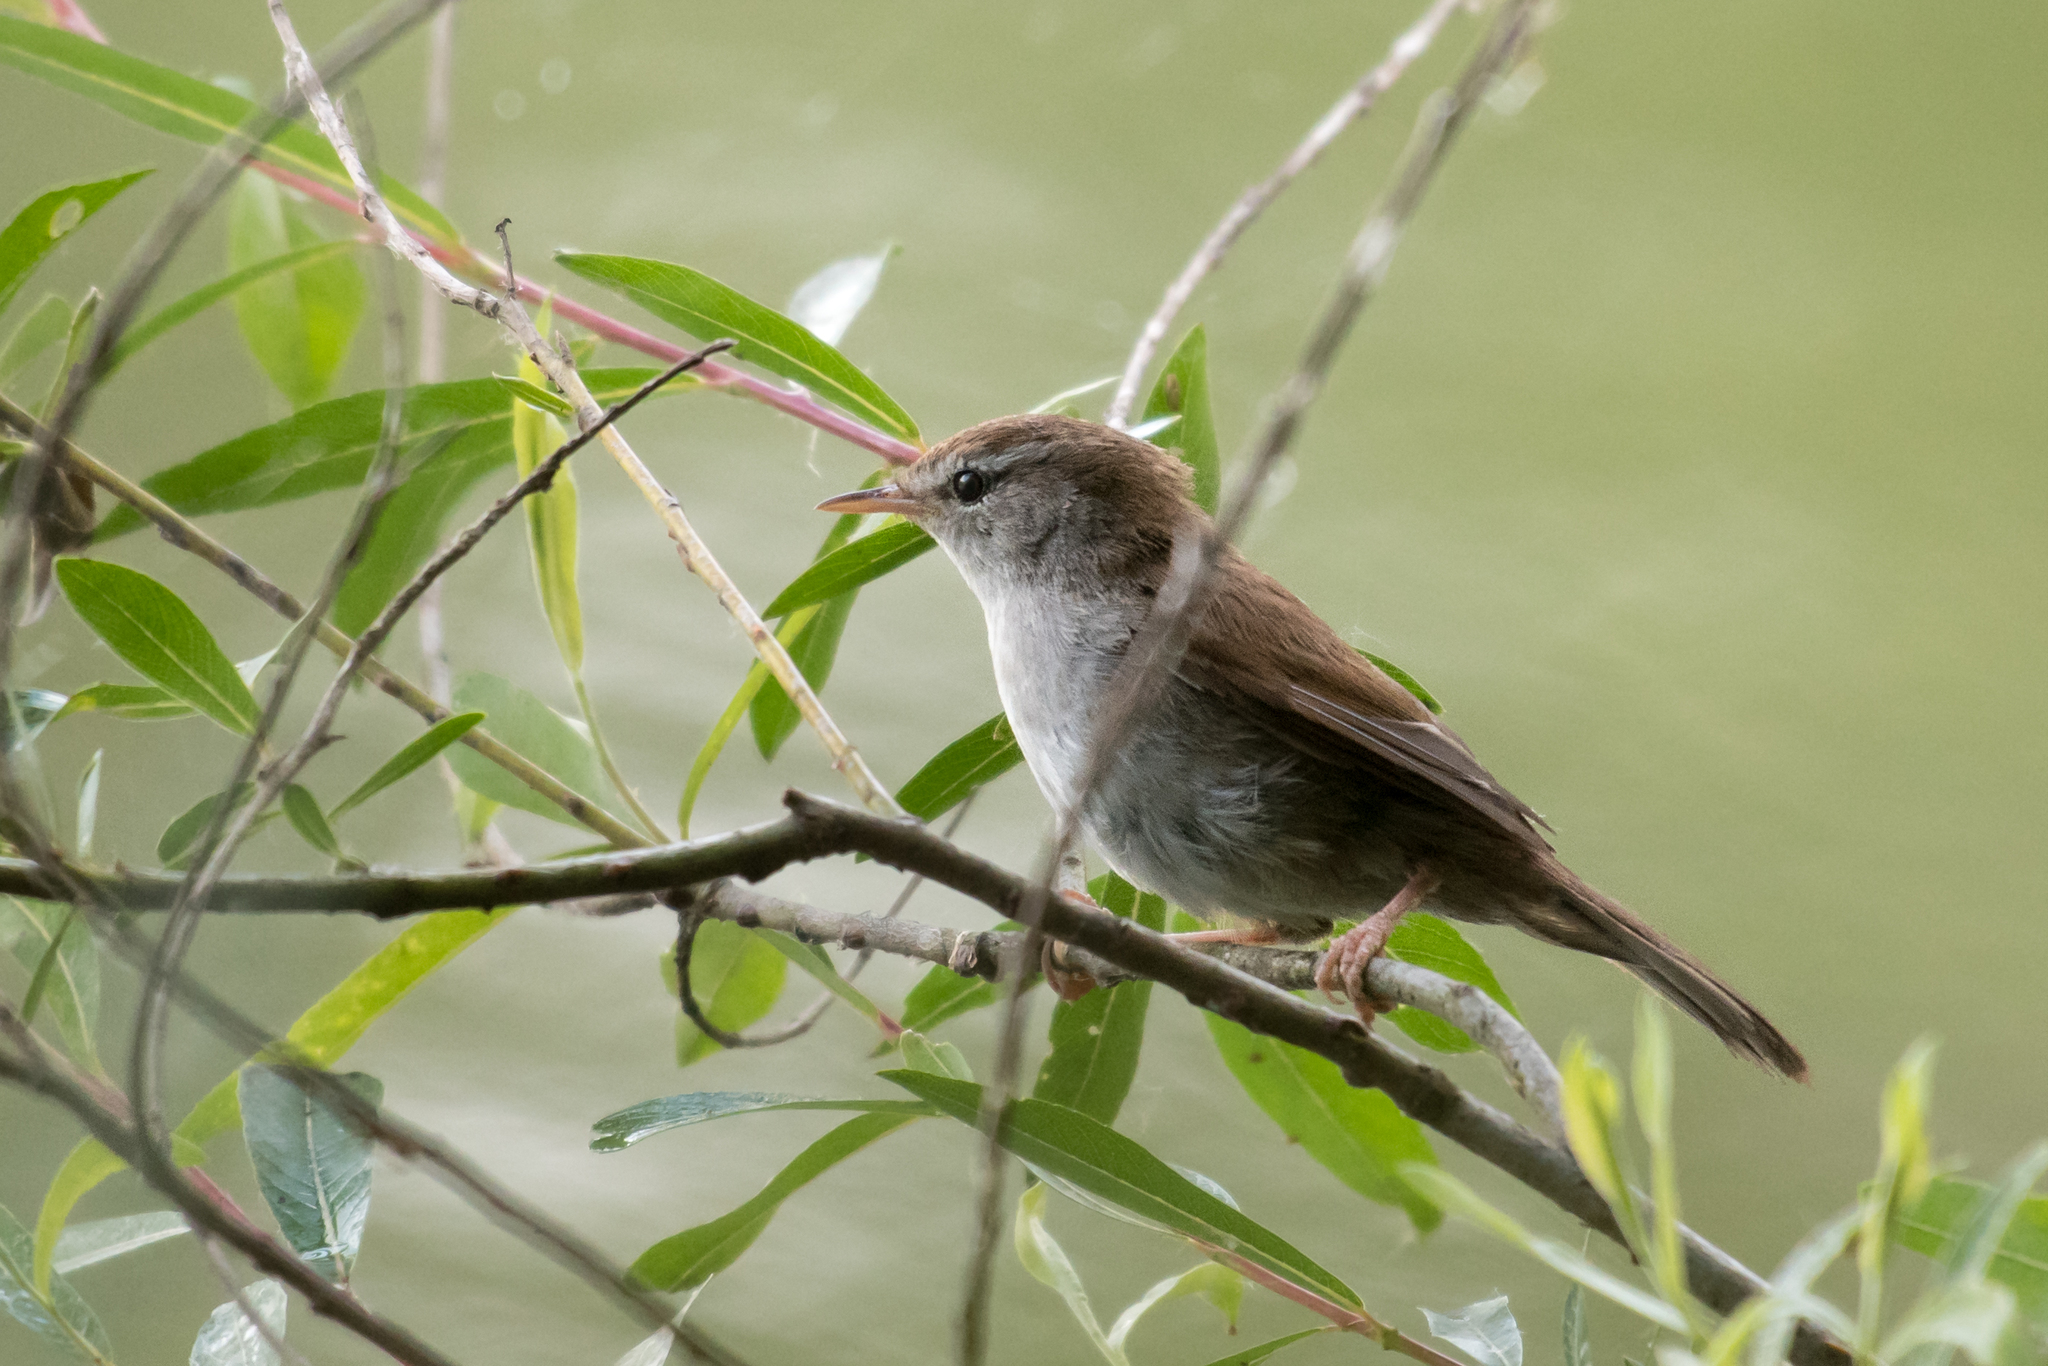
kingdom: Animalia
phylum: Chordata
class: Aves
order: Passeriformes
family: Cettiidae
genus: Cettia
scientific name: Cettia cetti
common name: Cetti's warbler
